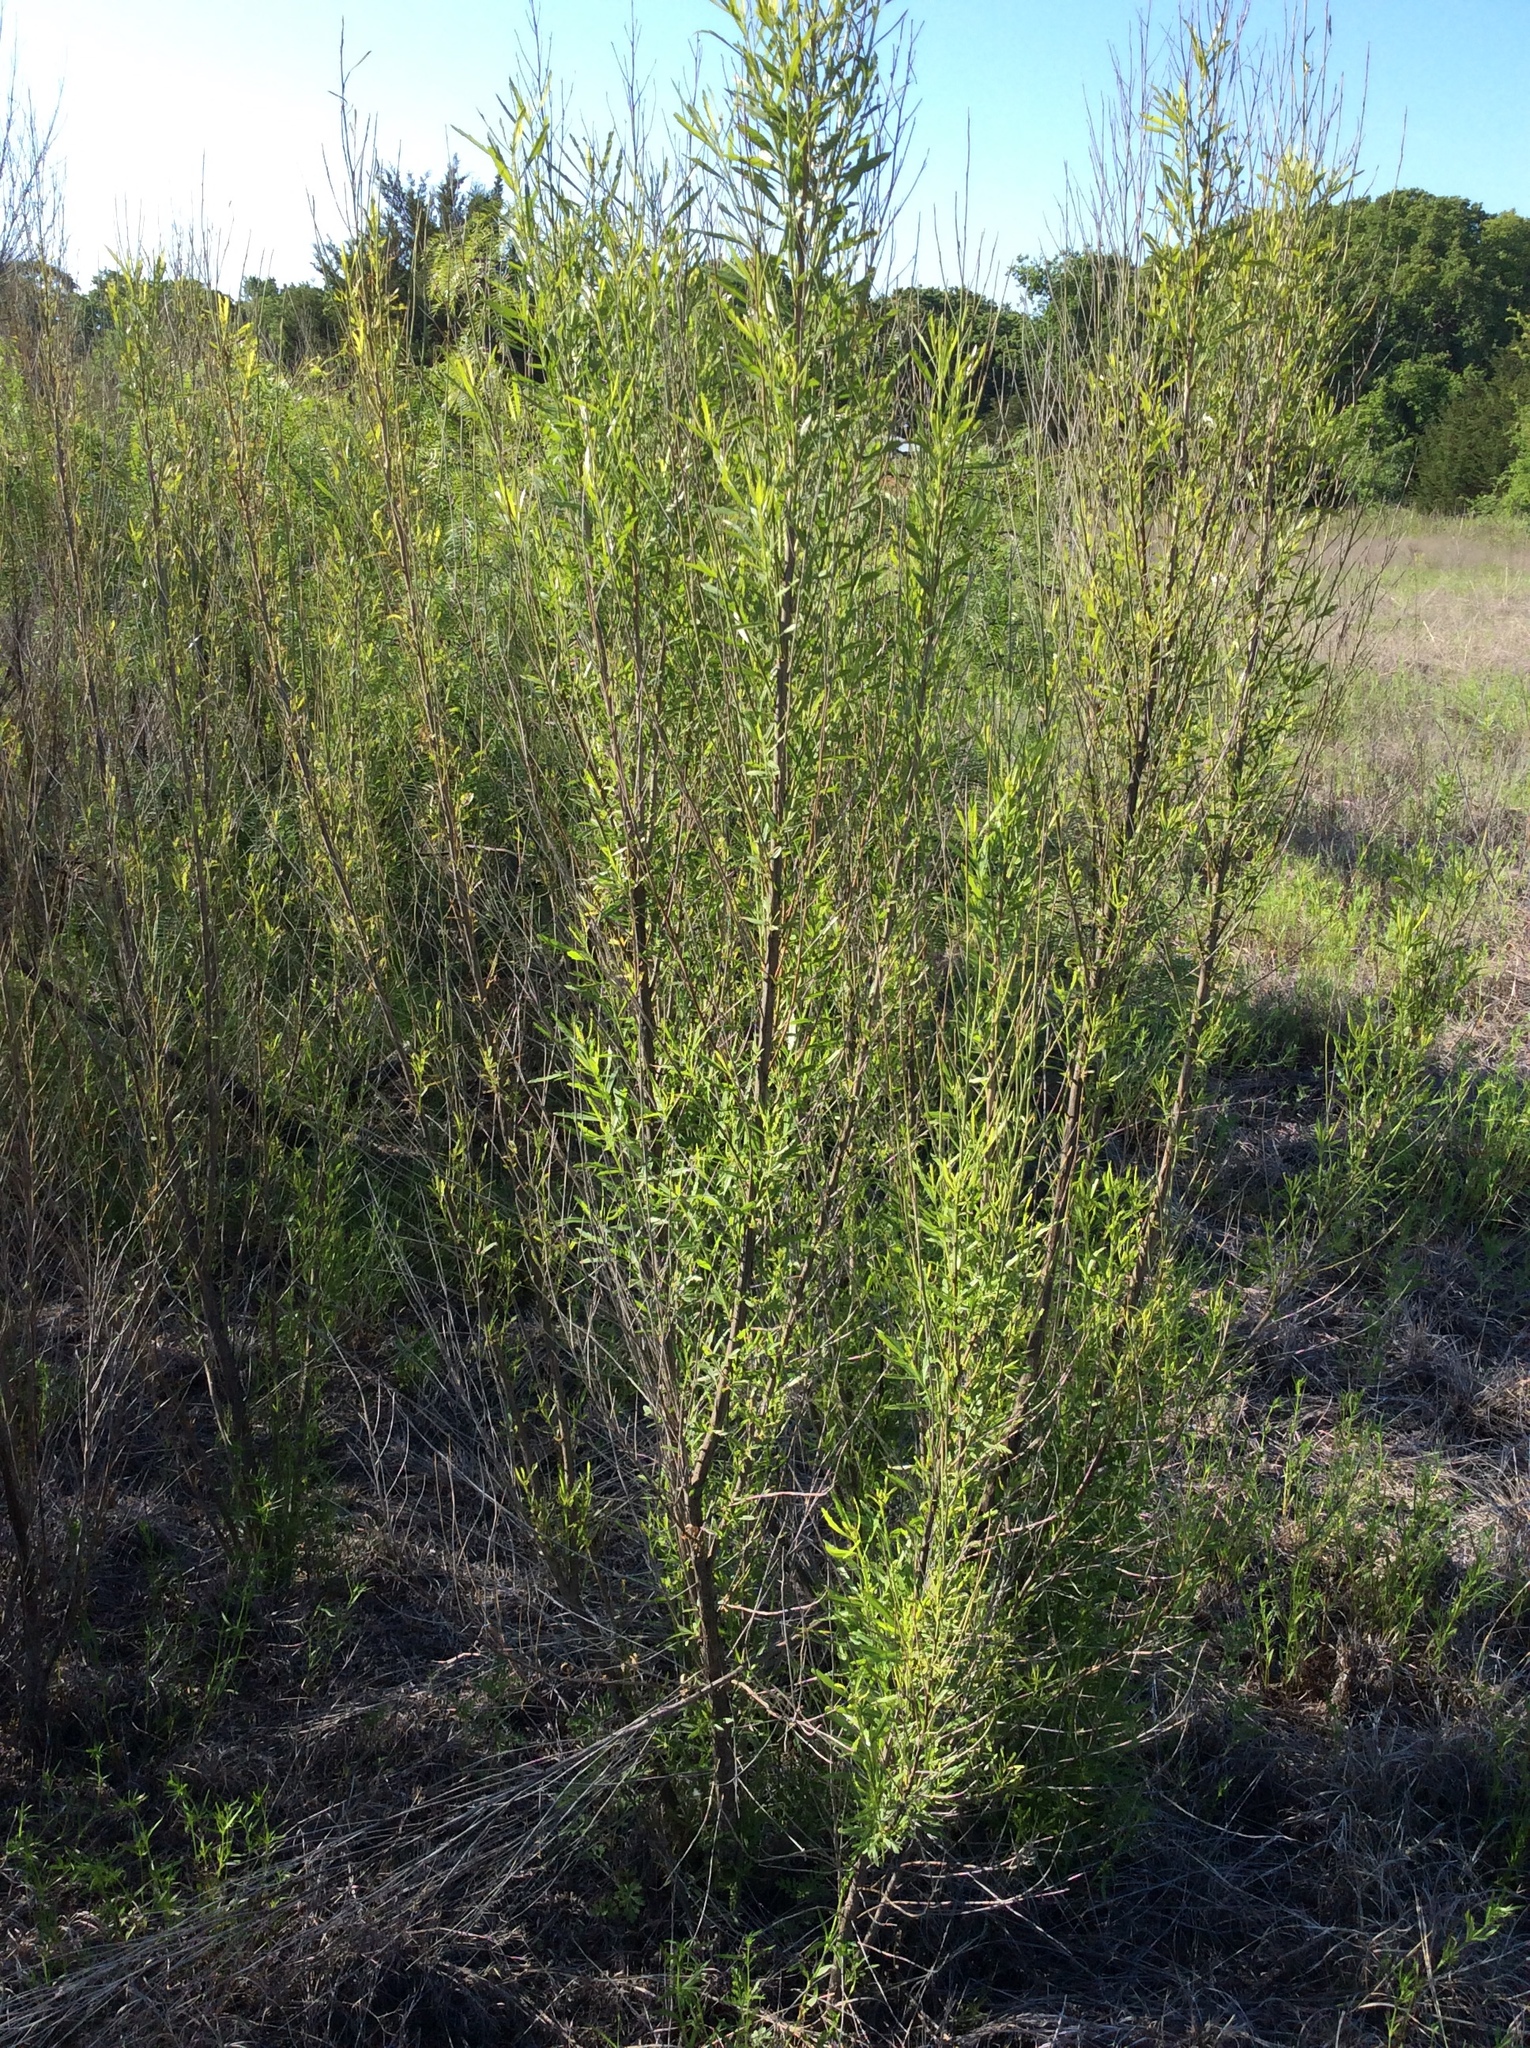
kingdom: Plantae
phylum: Tracheophyta
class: Magnoliopsida
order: Asterales
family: Asteraceae
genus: Baccharis
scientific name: Baccharis neglecta
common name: Roosevelt-weed
